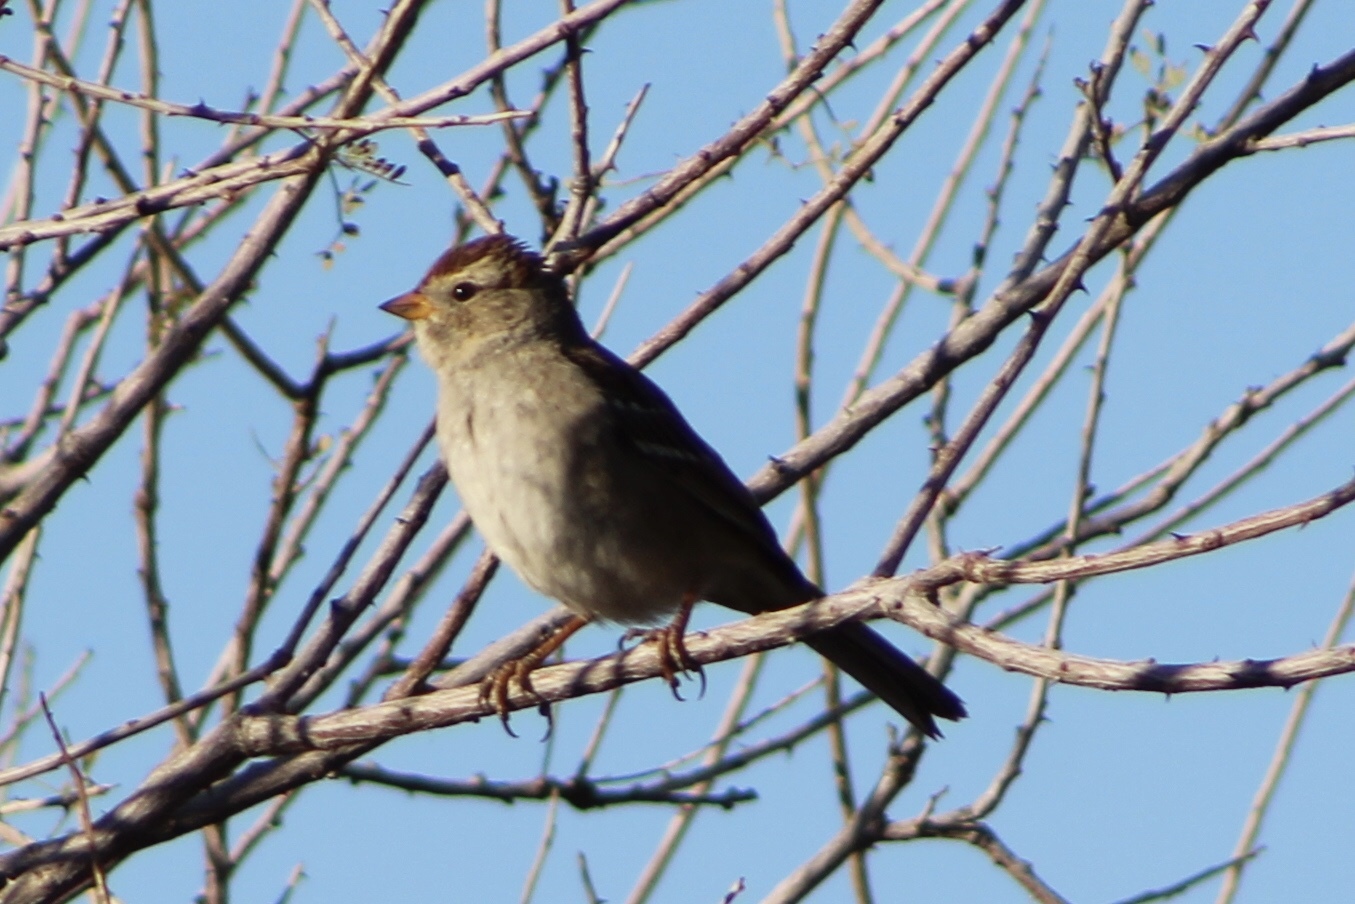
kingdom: Animalia
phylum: Chordata
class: Aves
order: Passeriformes
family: Passerellidae
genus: Zonotrichia
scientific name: Zonotrichia leucophrys
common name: White-crowned sparrow
